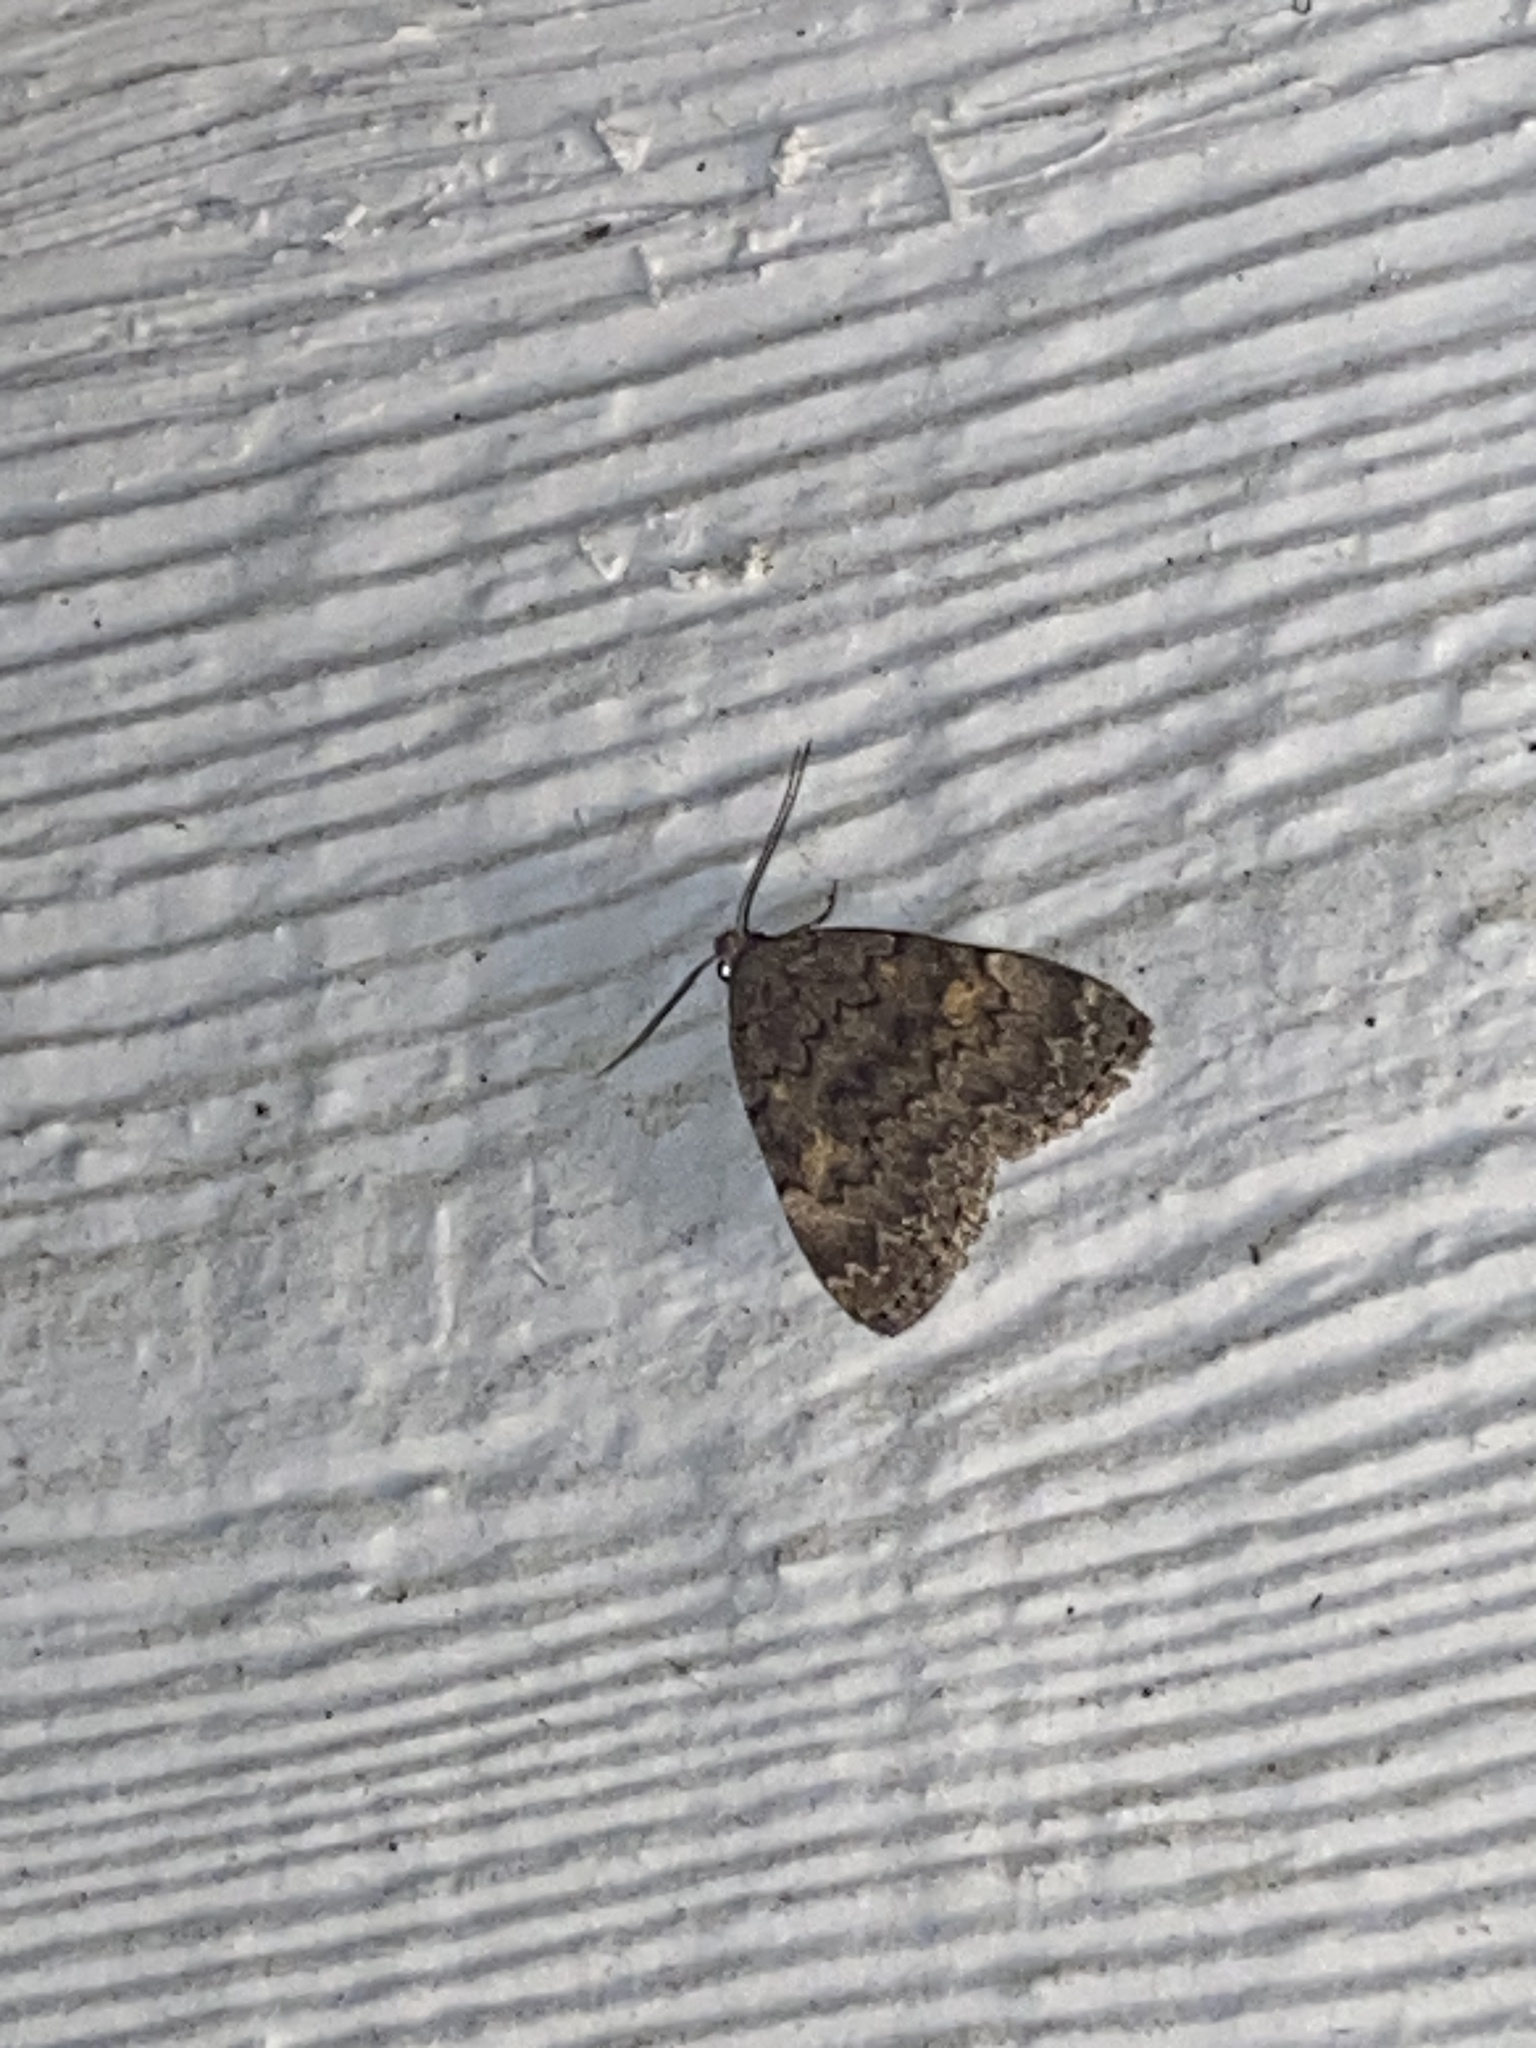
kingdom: Animalia
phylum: Arthropoda
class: Insecta
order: Lepidoptera
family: Erebidae
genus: Idia
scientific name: Idia aemula
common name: Common idia moth
